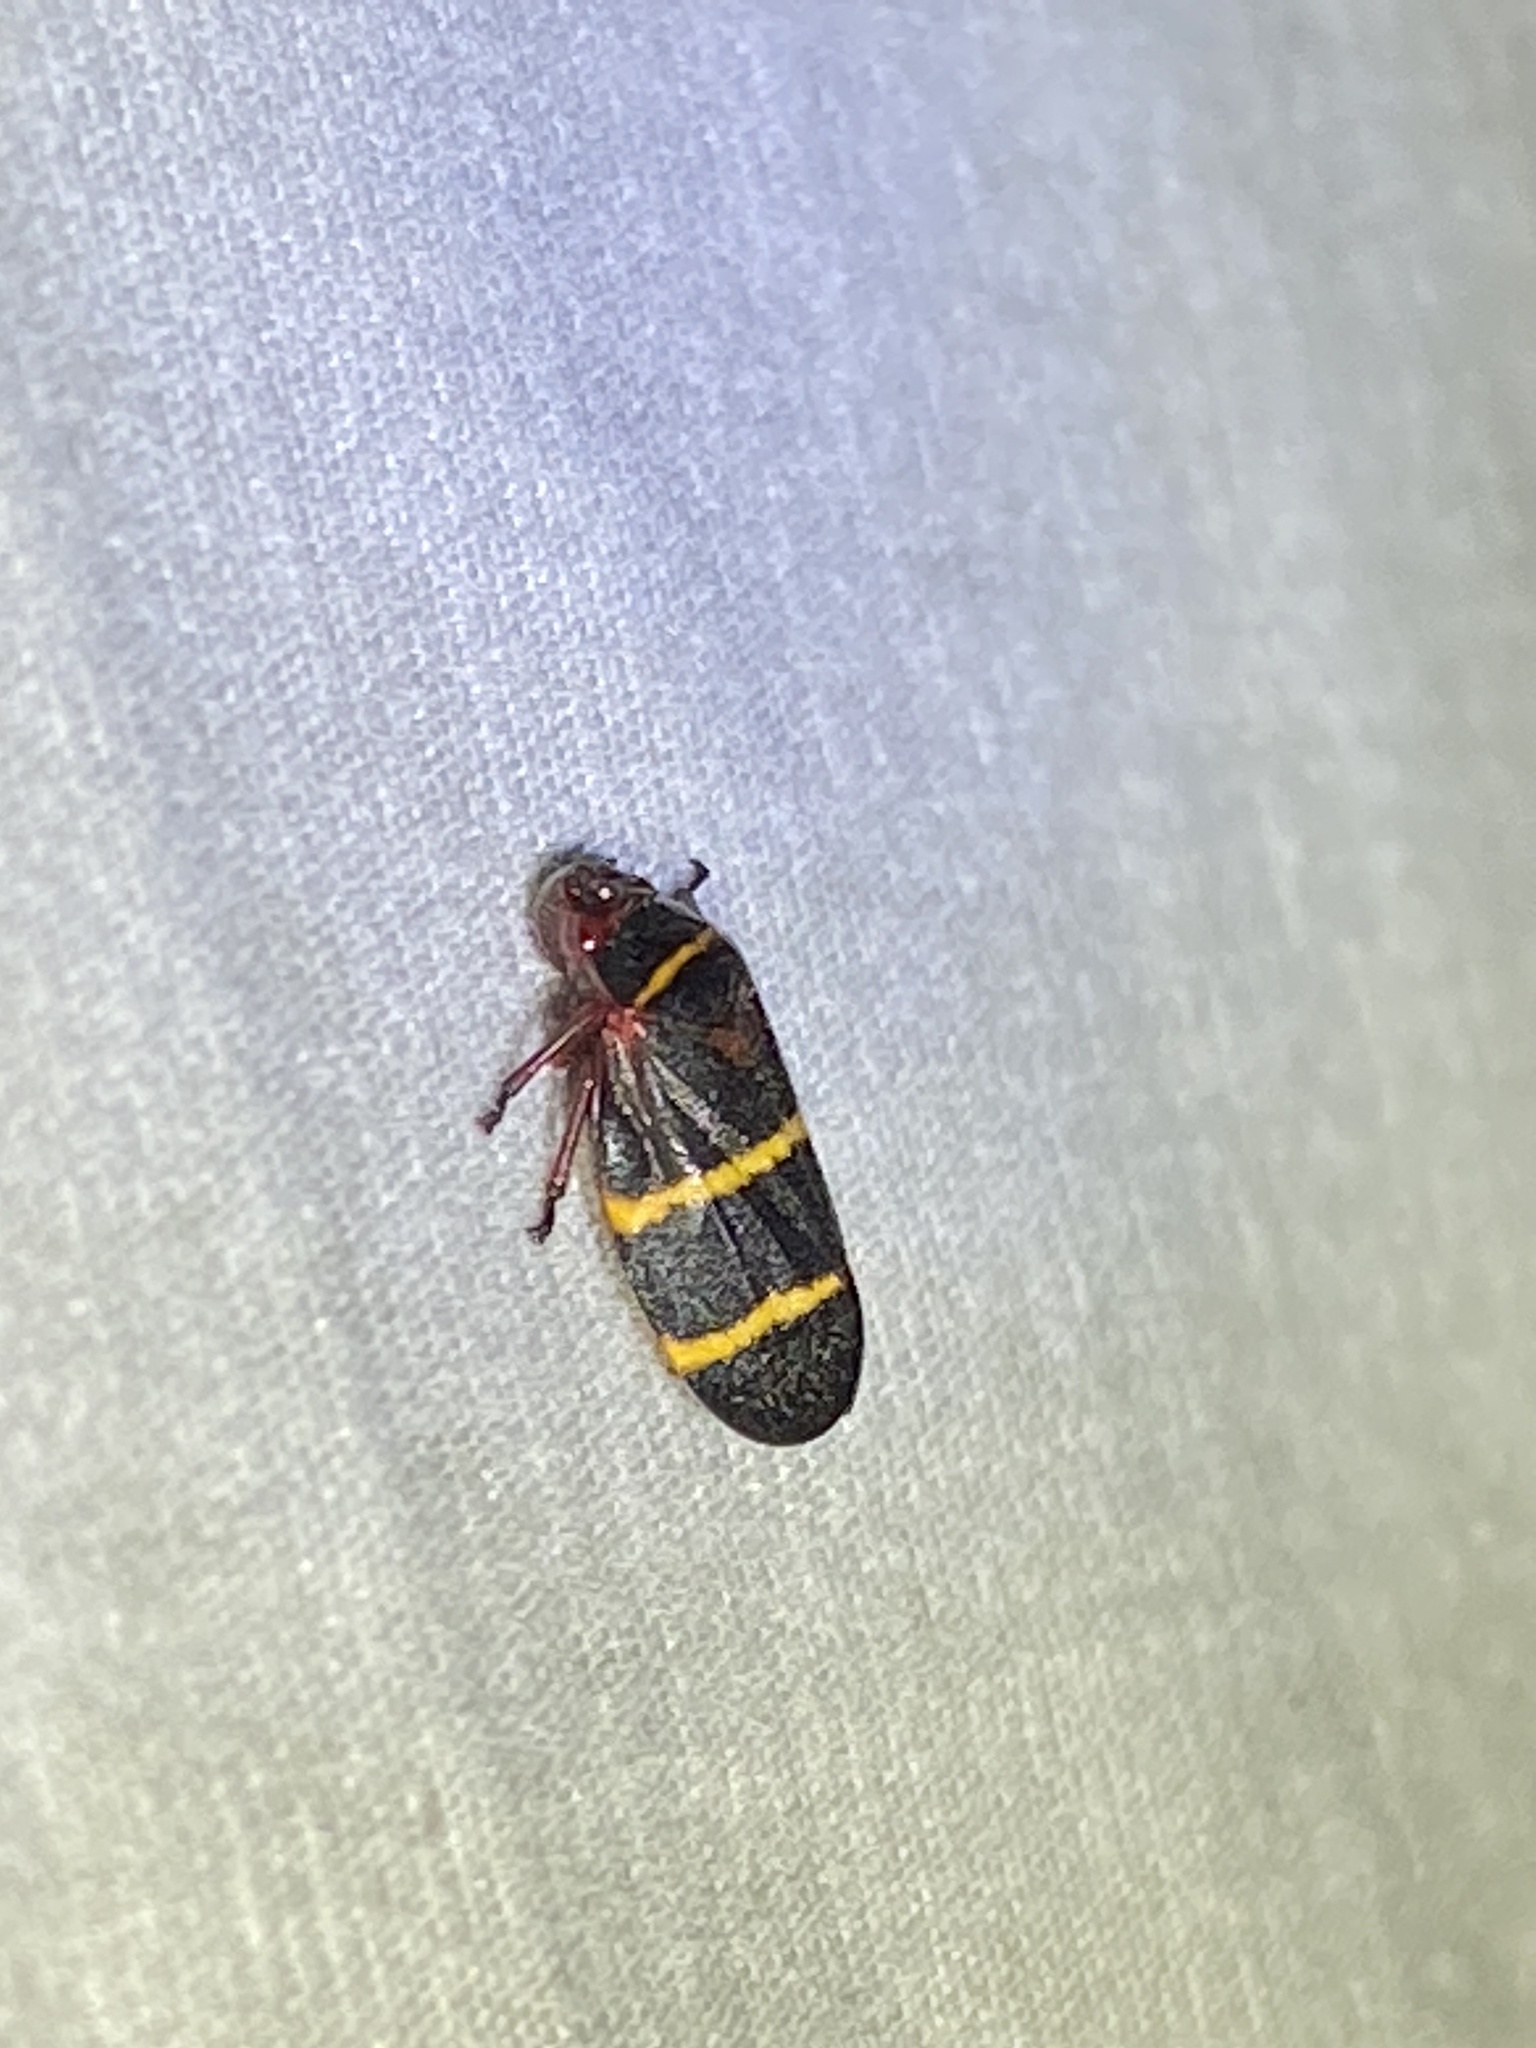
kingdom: Animalia
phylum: Arthropoda
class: Insecta
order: Hemiptera
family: Cercopidae
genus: Prosapia
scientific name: Prosapia bicincta
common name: Twolined spittlebug
